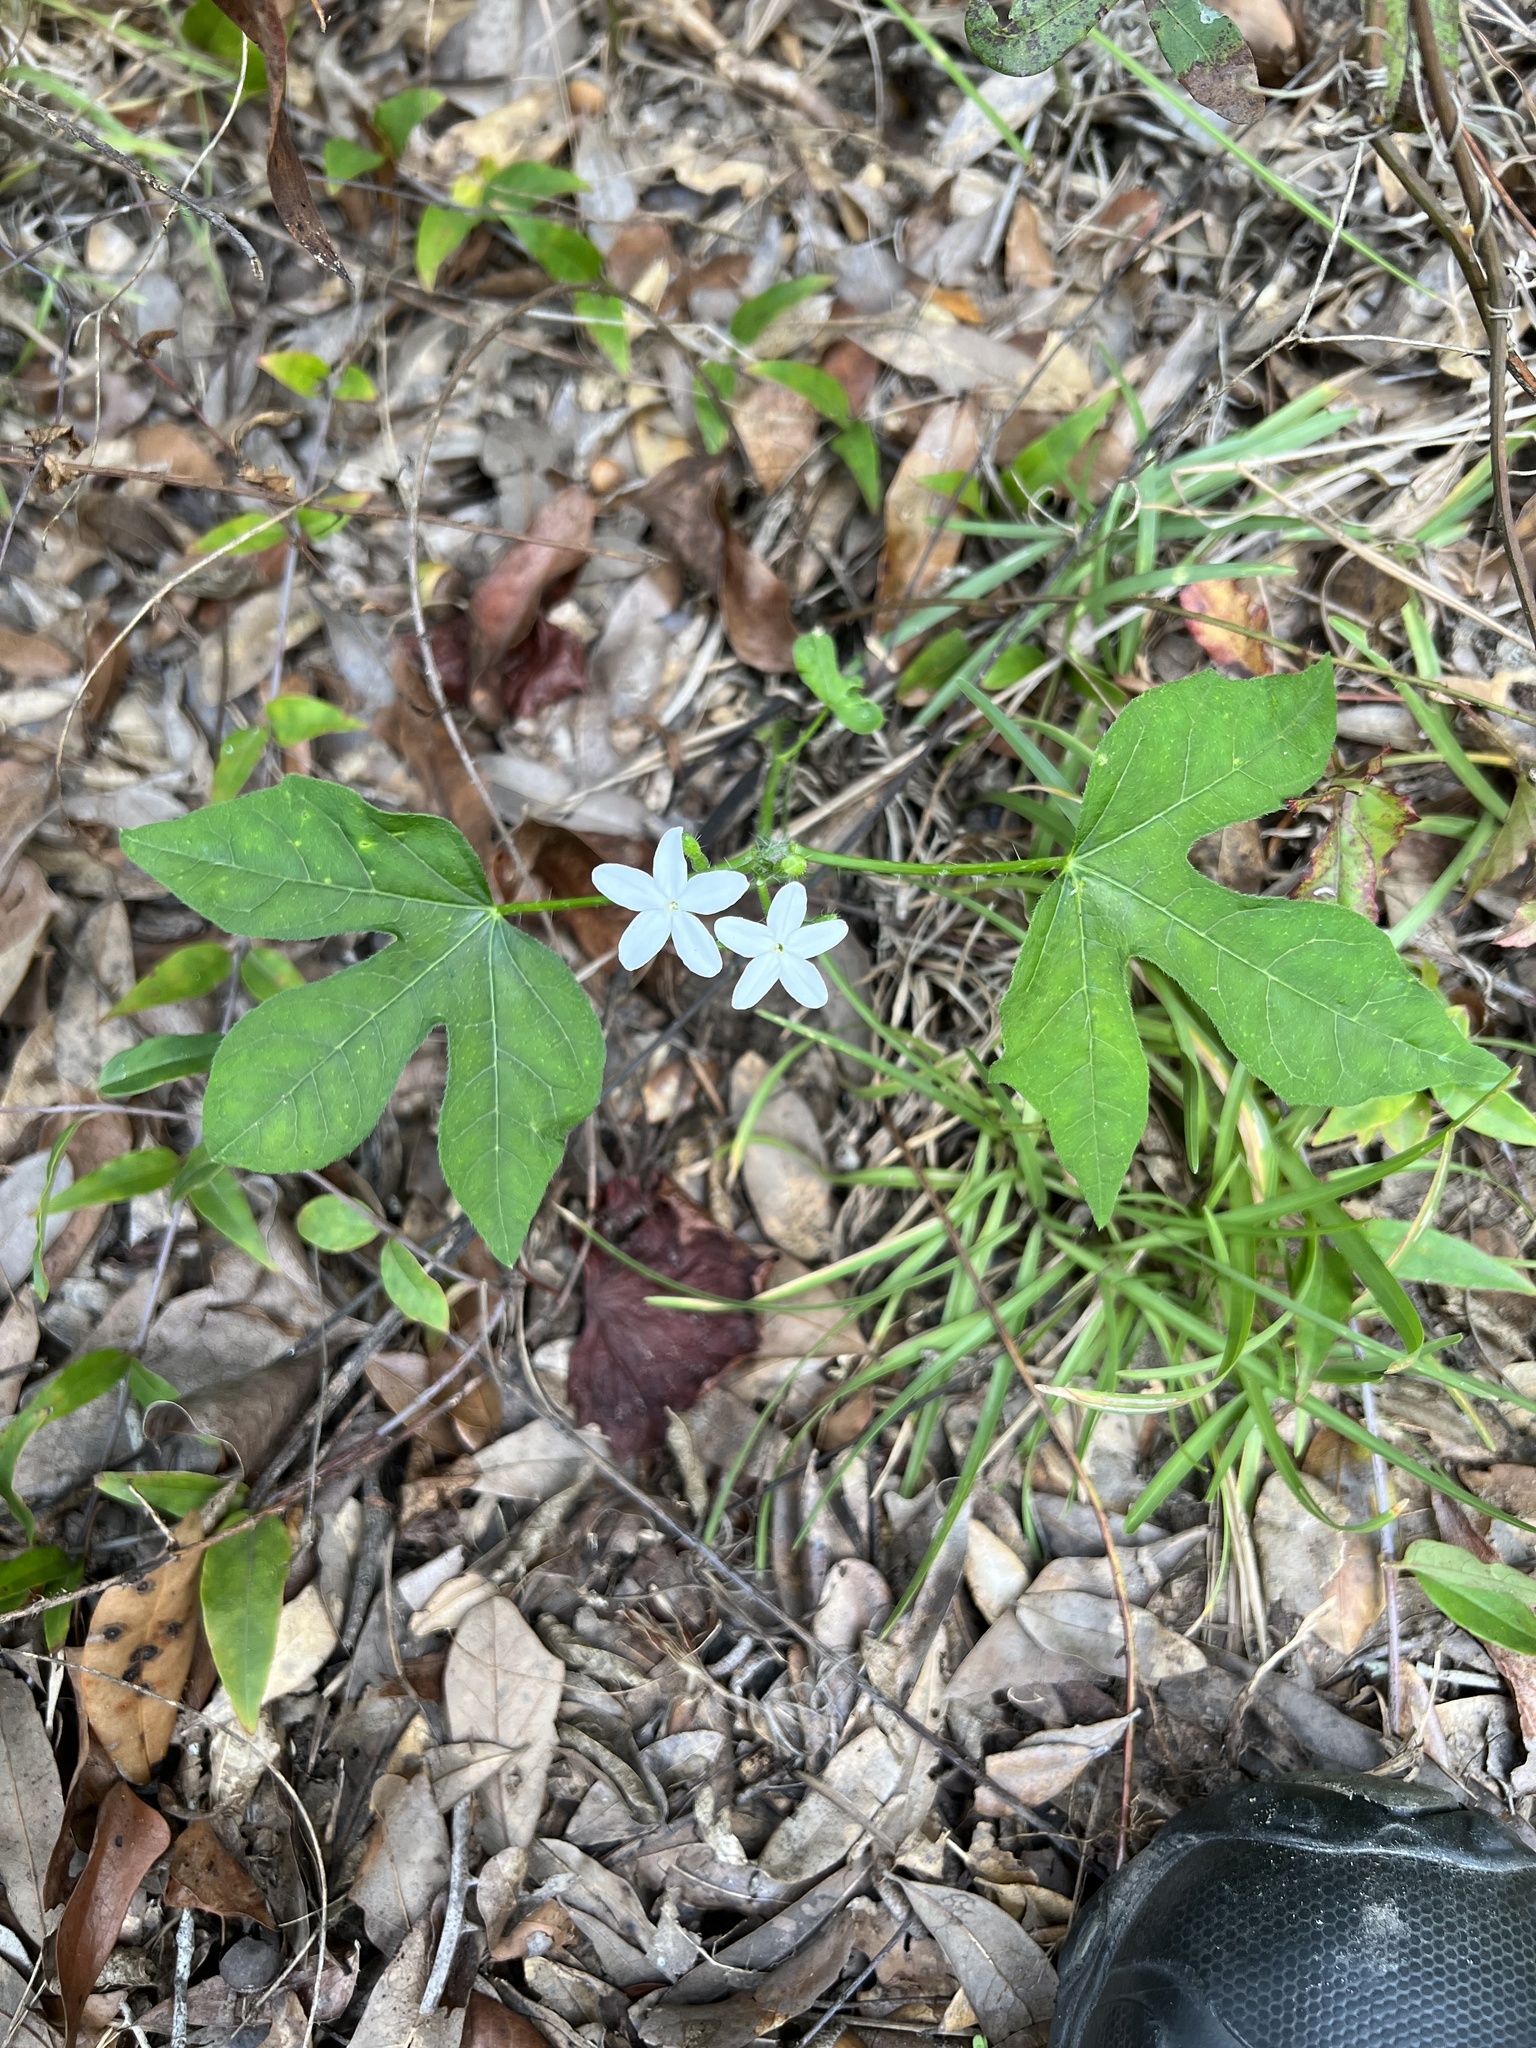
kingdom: Plantae
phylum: Tracheophyta
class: Magnoliopsida
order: Malpighiales
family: Euphorbiaceae
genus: Cnidoscolus
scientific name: Cnidoscolus stimulosus
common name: Bull-nettle
